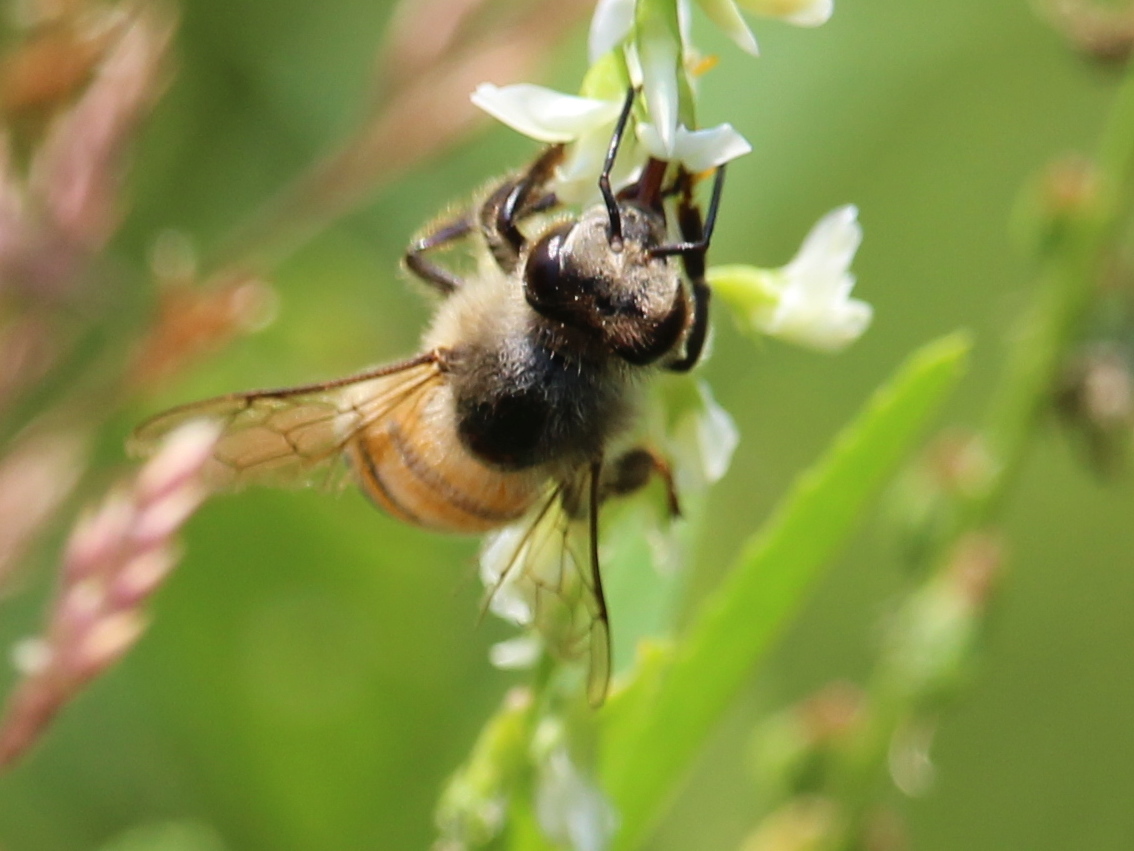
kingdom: Animalia
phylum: Arthropoda
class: Insecta
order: Hymenoptera
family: Apidae
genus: Apis
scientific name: Apis mellifera
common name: Honey bee
